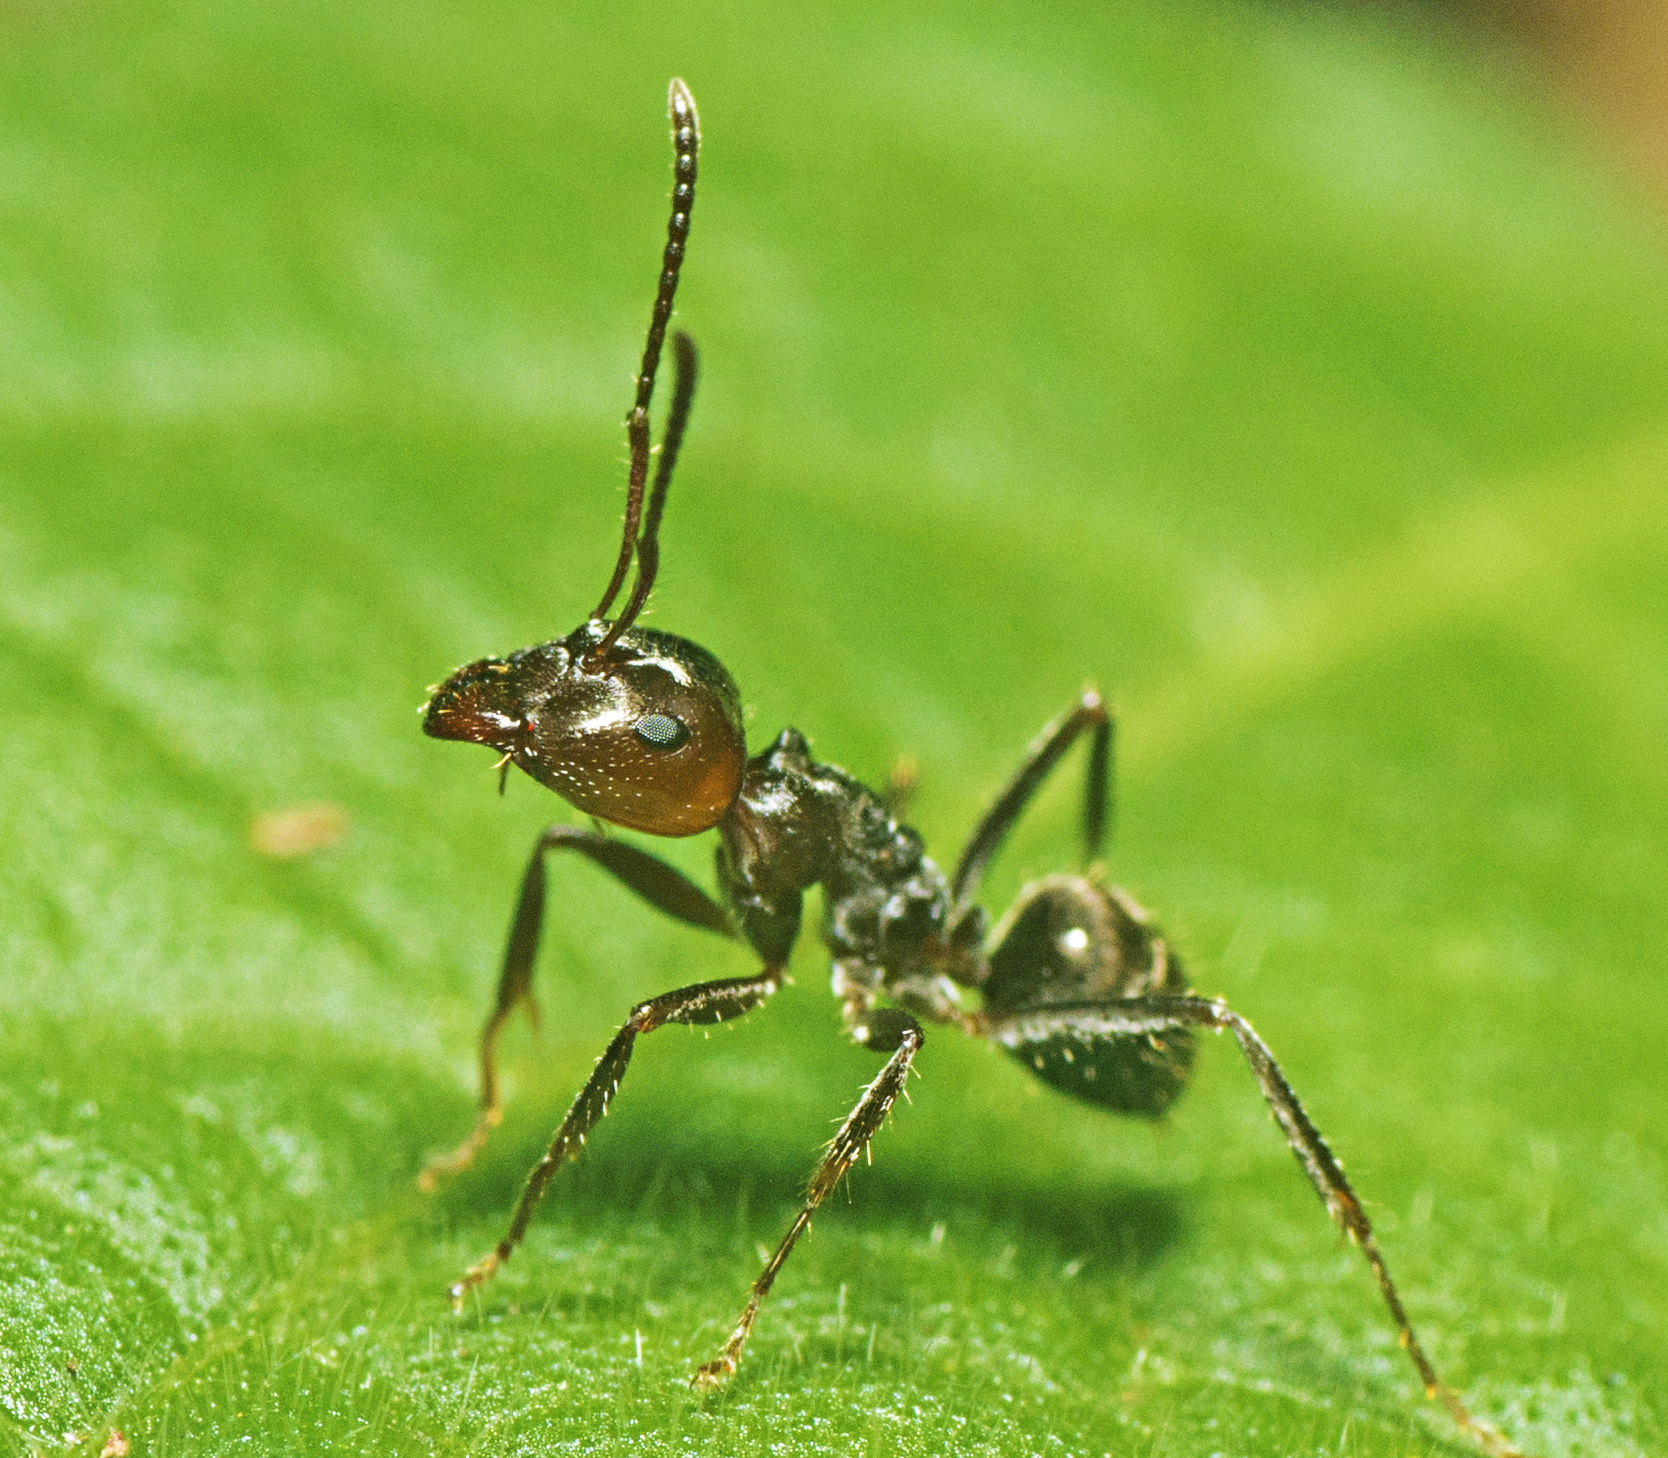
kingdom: Animalia
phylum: Arthropoda
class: Insecta
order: Hymenoptera
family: Formicidae
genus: Notoncus
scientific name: Notoncus capitatus
